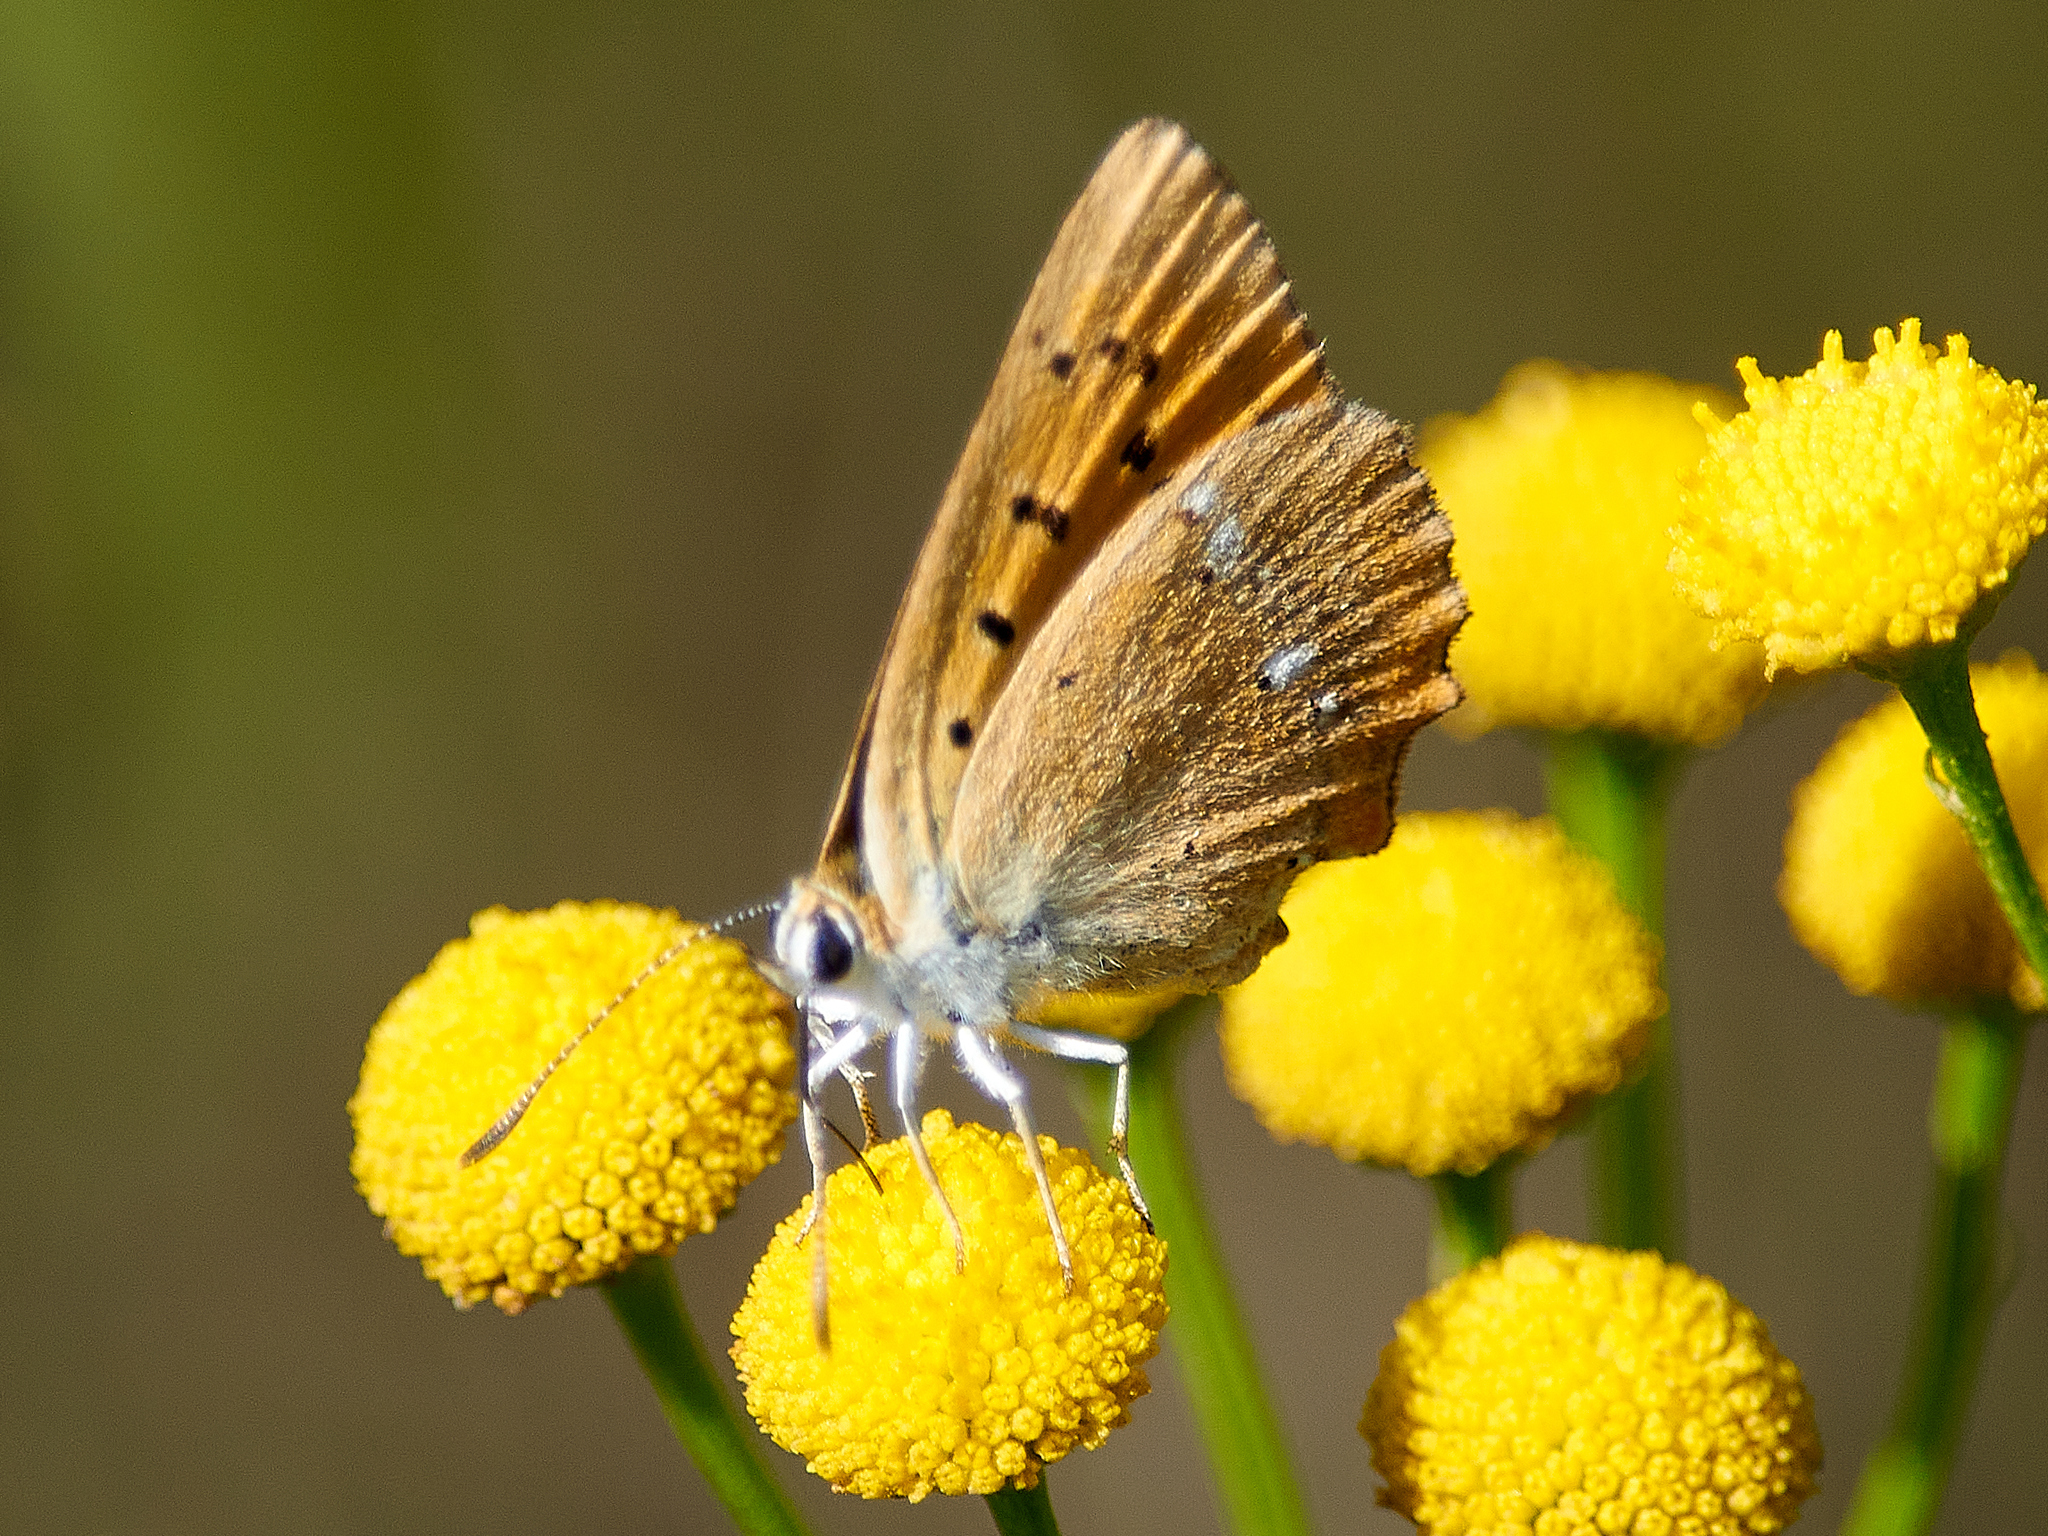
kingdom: Animalia
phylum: Arthropoda
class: Insecta
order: Lepidoptera
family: Lycaenidae
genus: Lycaena
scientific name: Lycaena virgaureae
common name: Scarce copper
